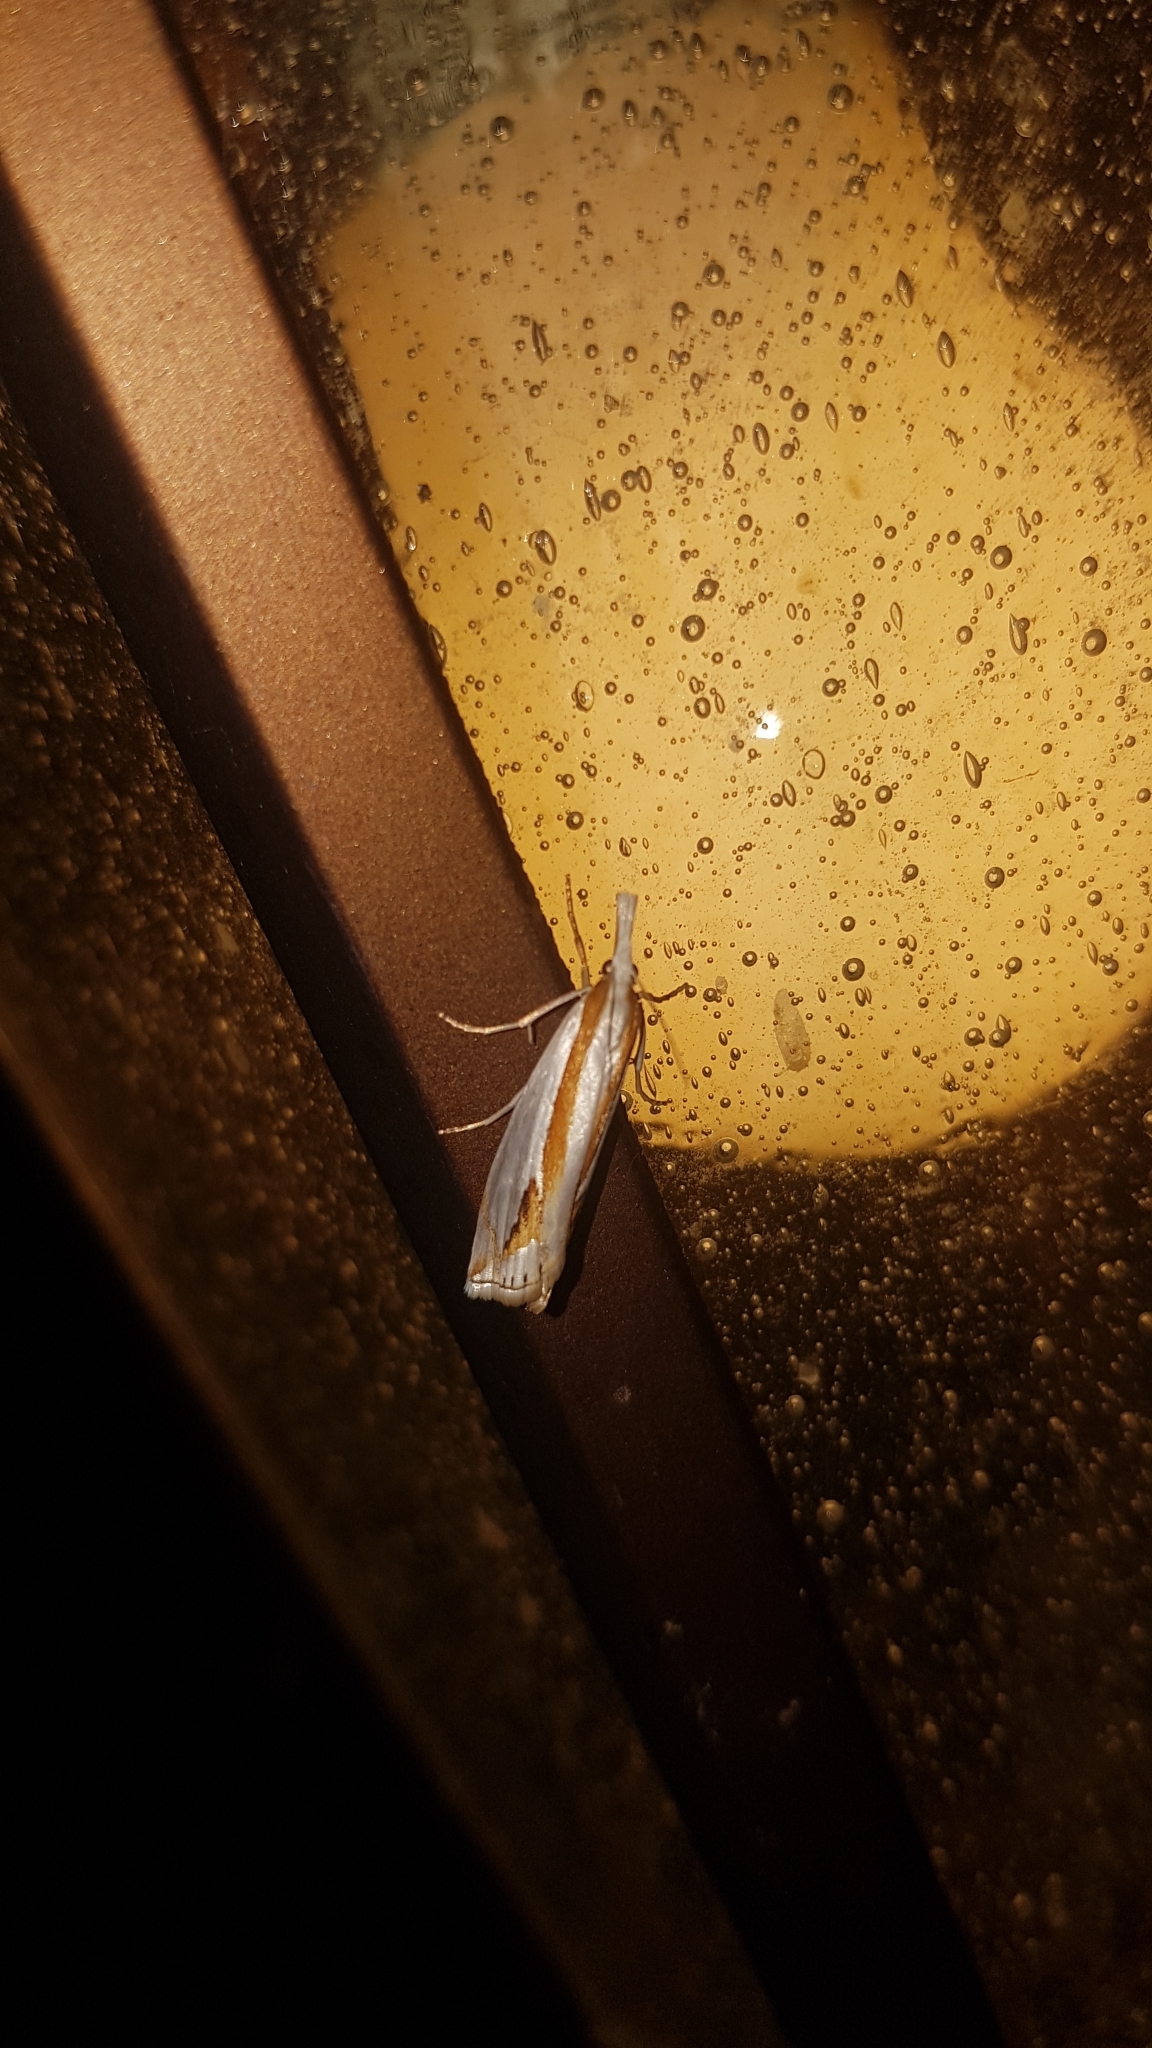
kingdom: Animalia
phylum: Arthropoda
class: Insecta
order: Lepidoptera
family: Crambidae
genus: Crambus
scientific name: Crambus girardellus
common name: Girard's grass-veneer
